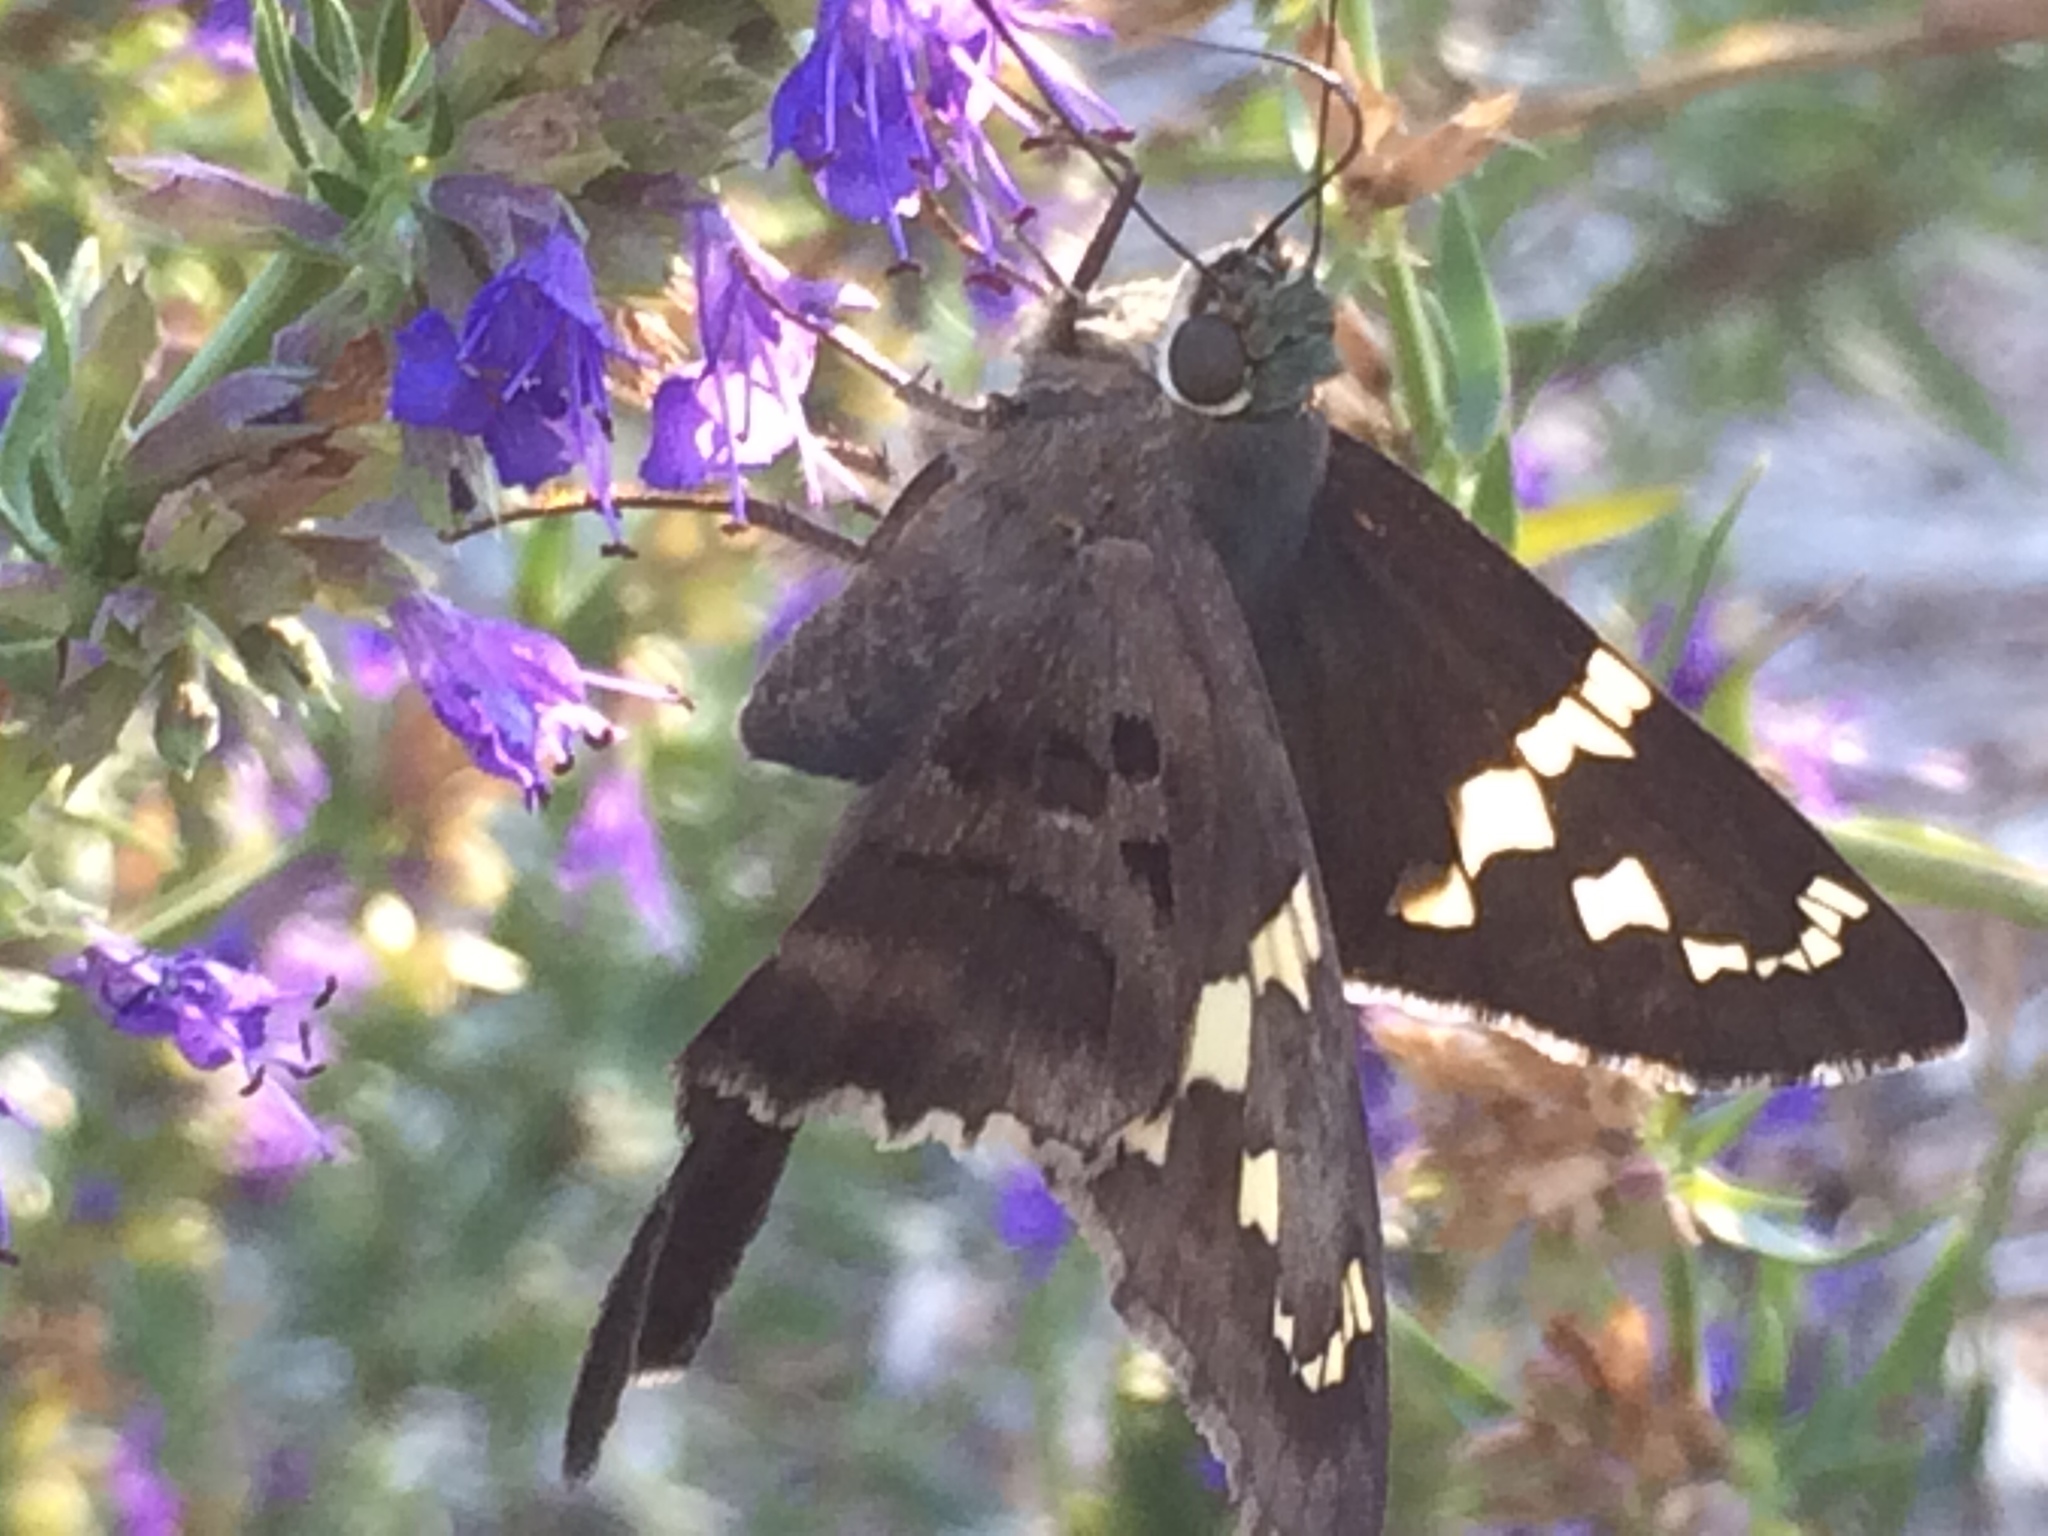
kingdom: Animalia
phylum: Arthropoda
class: Insecta
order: Lepidoptera
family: Hesperiidae
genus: Urbanus
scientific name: Urbanus proteus
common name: Long-tailed skipper
